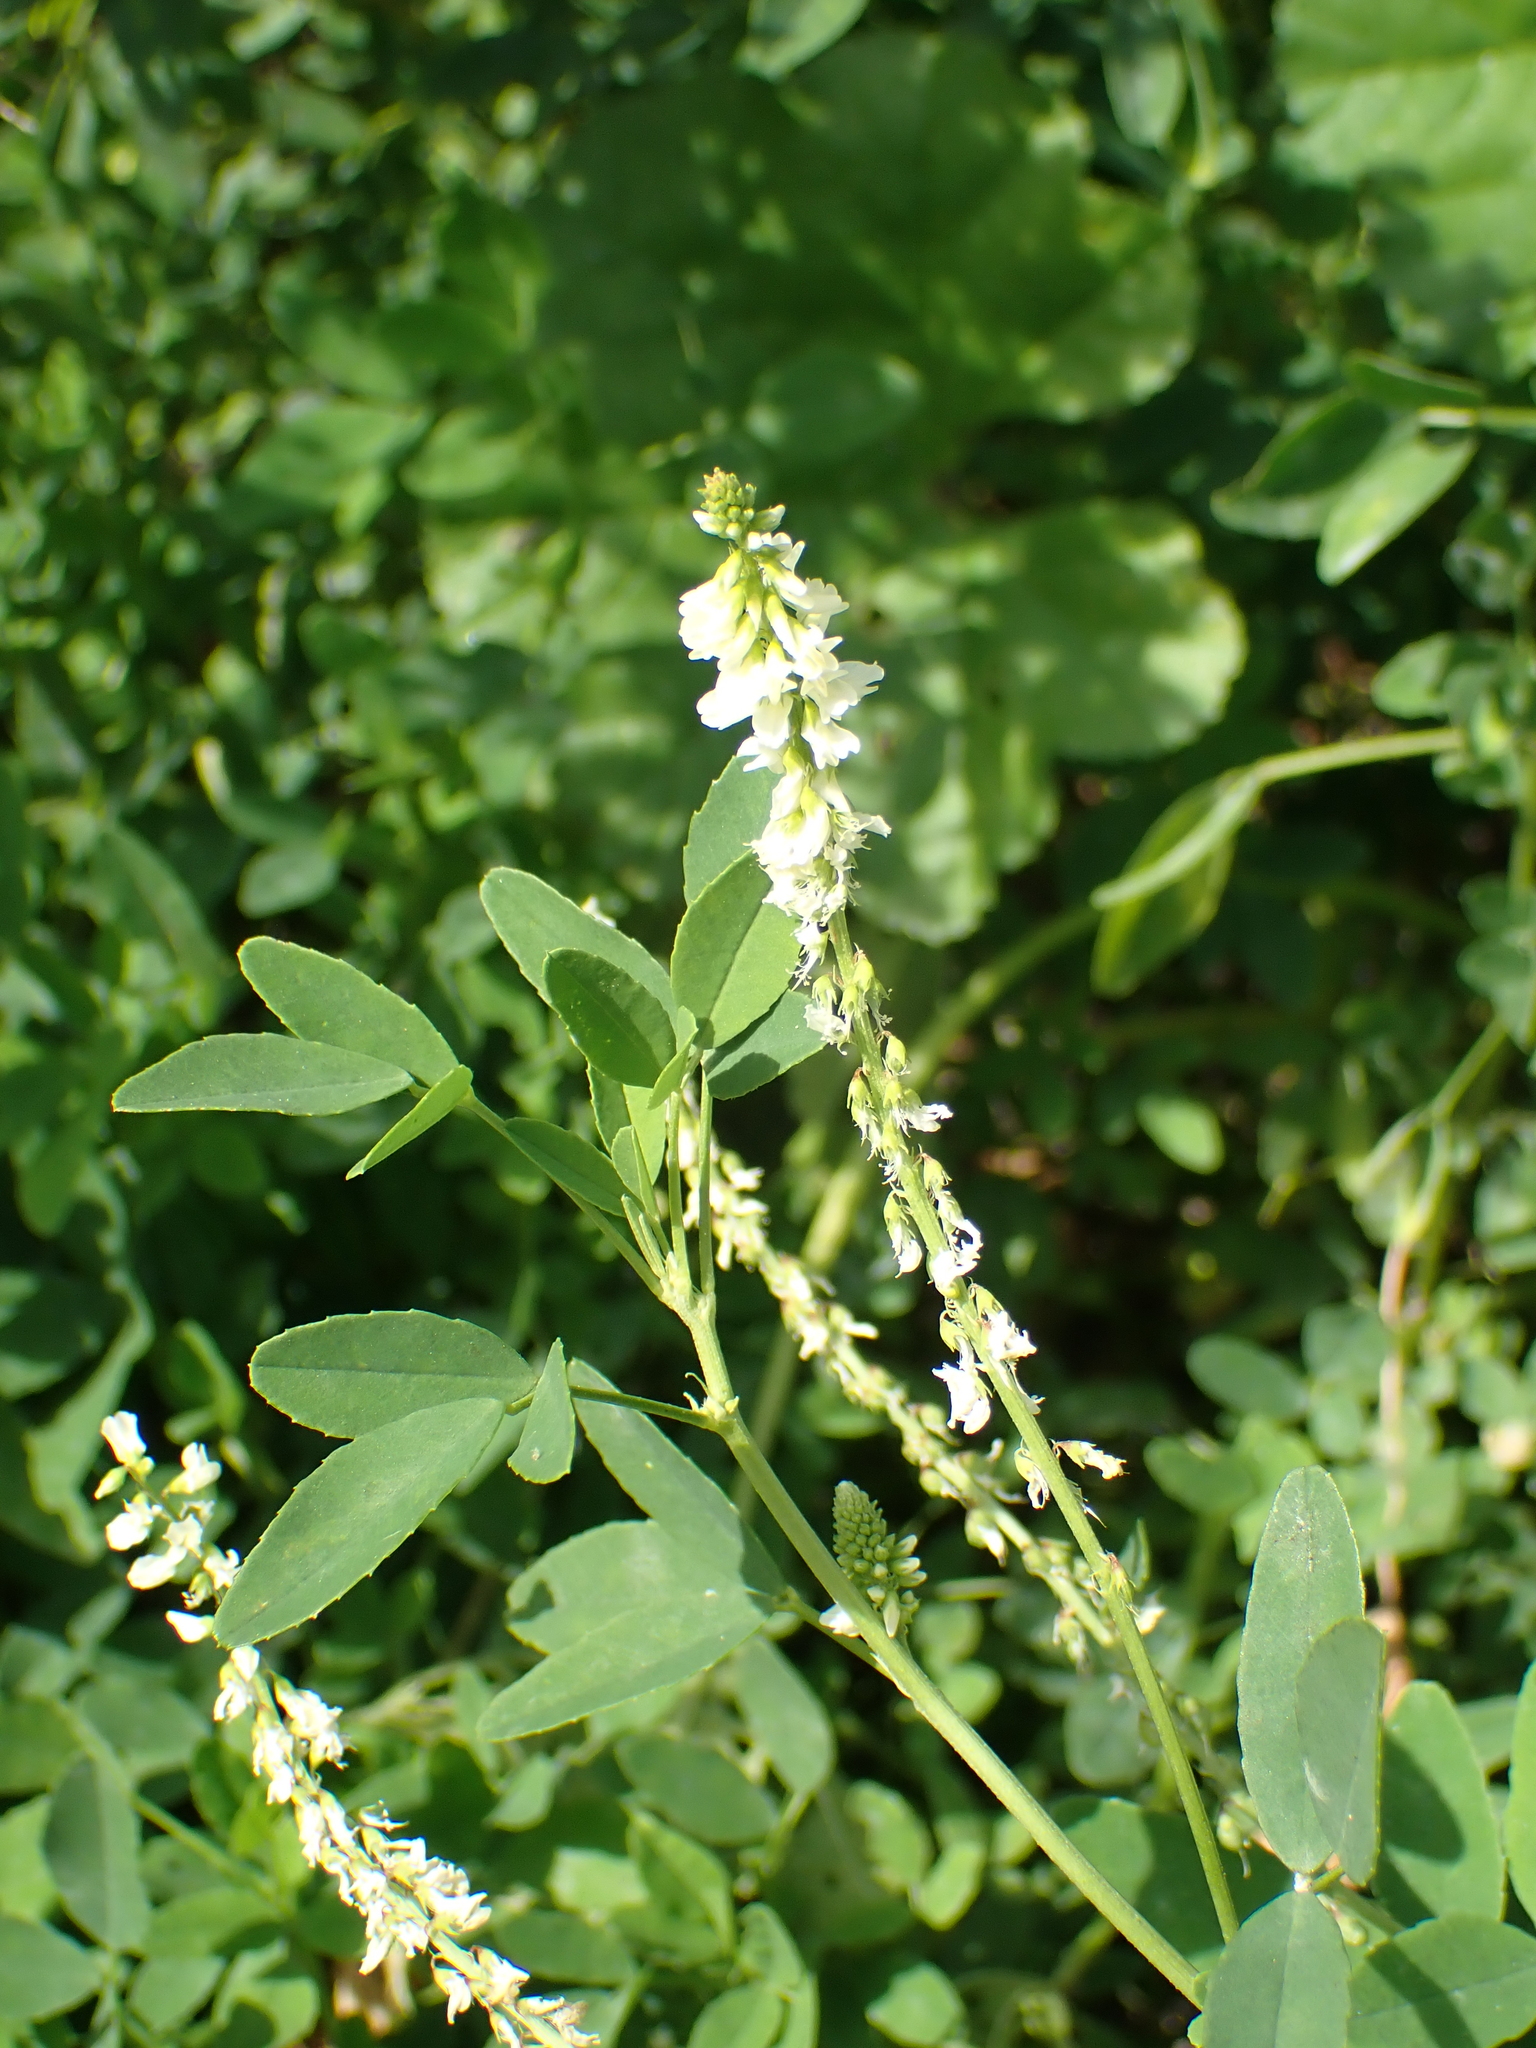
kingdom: Plantae
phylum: Tracheophyta
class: Magnoliopsida
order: Fabales
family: Fabaceae
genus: Melilotus
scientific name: Melilotus albus
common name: White melilot
